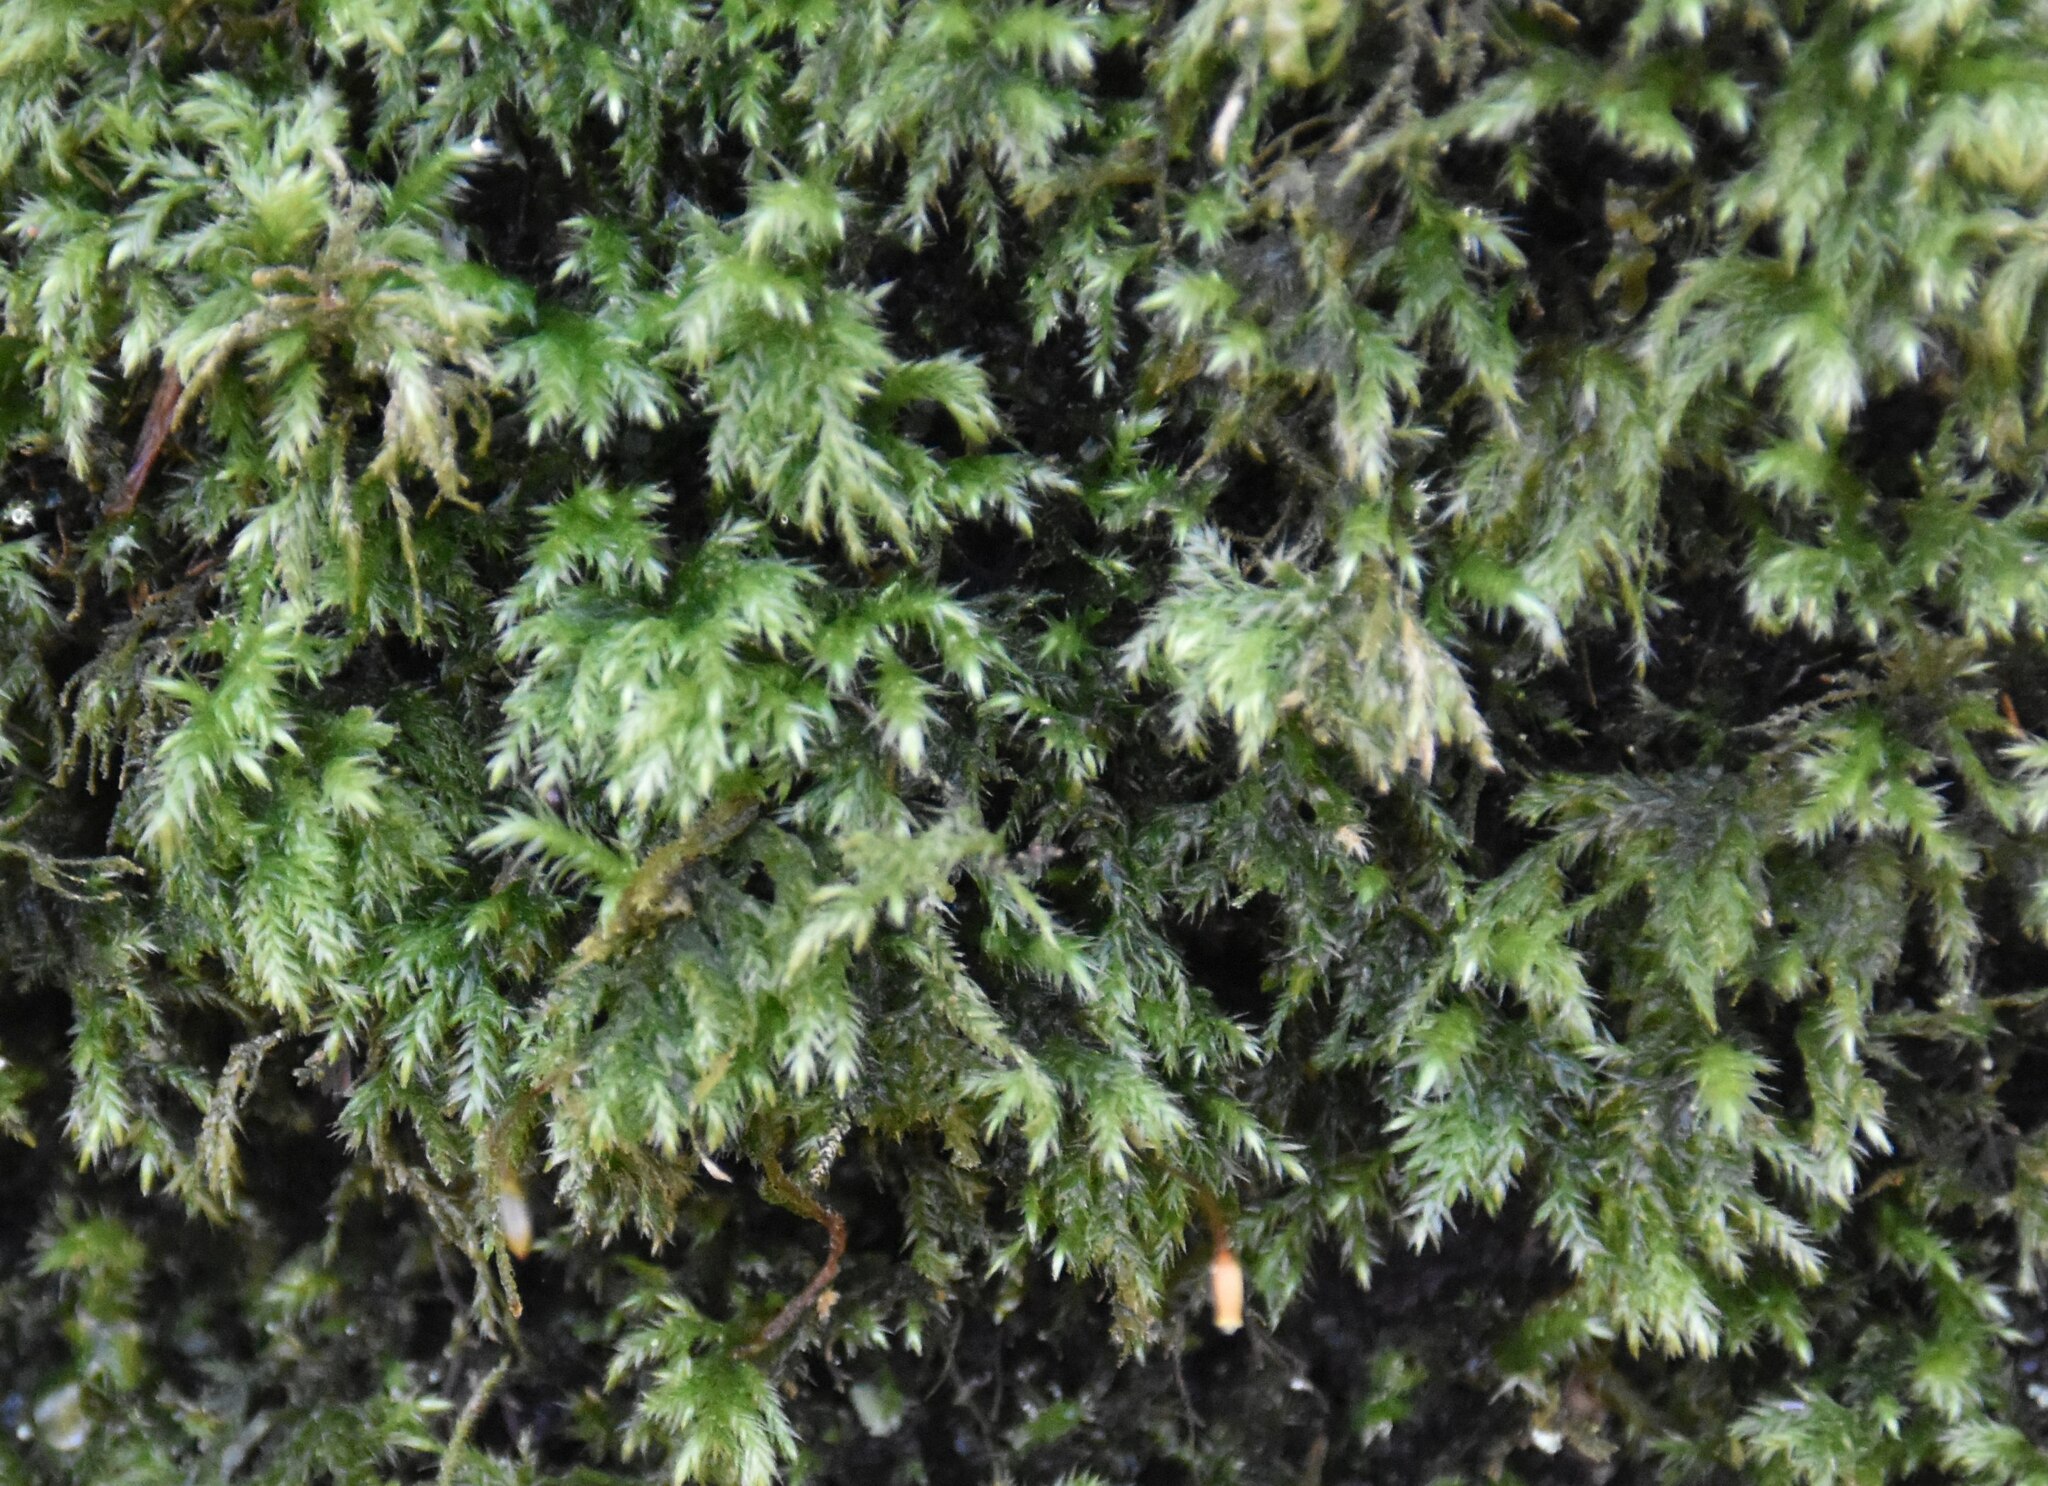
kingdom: Plantae
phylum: Bryophyta
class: Bryopsida
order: Hypnales
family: Lembophyllaceae
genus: Pseudisothecium
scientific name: Pseudisothecium myosuroides
